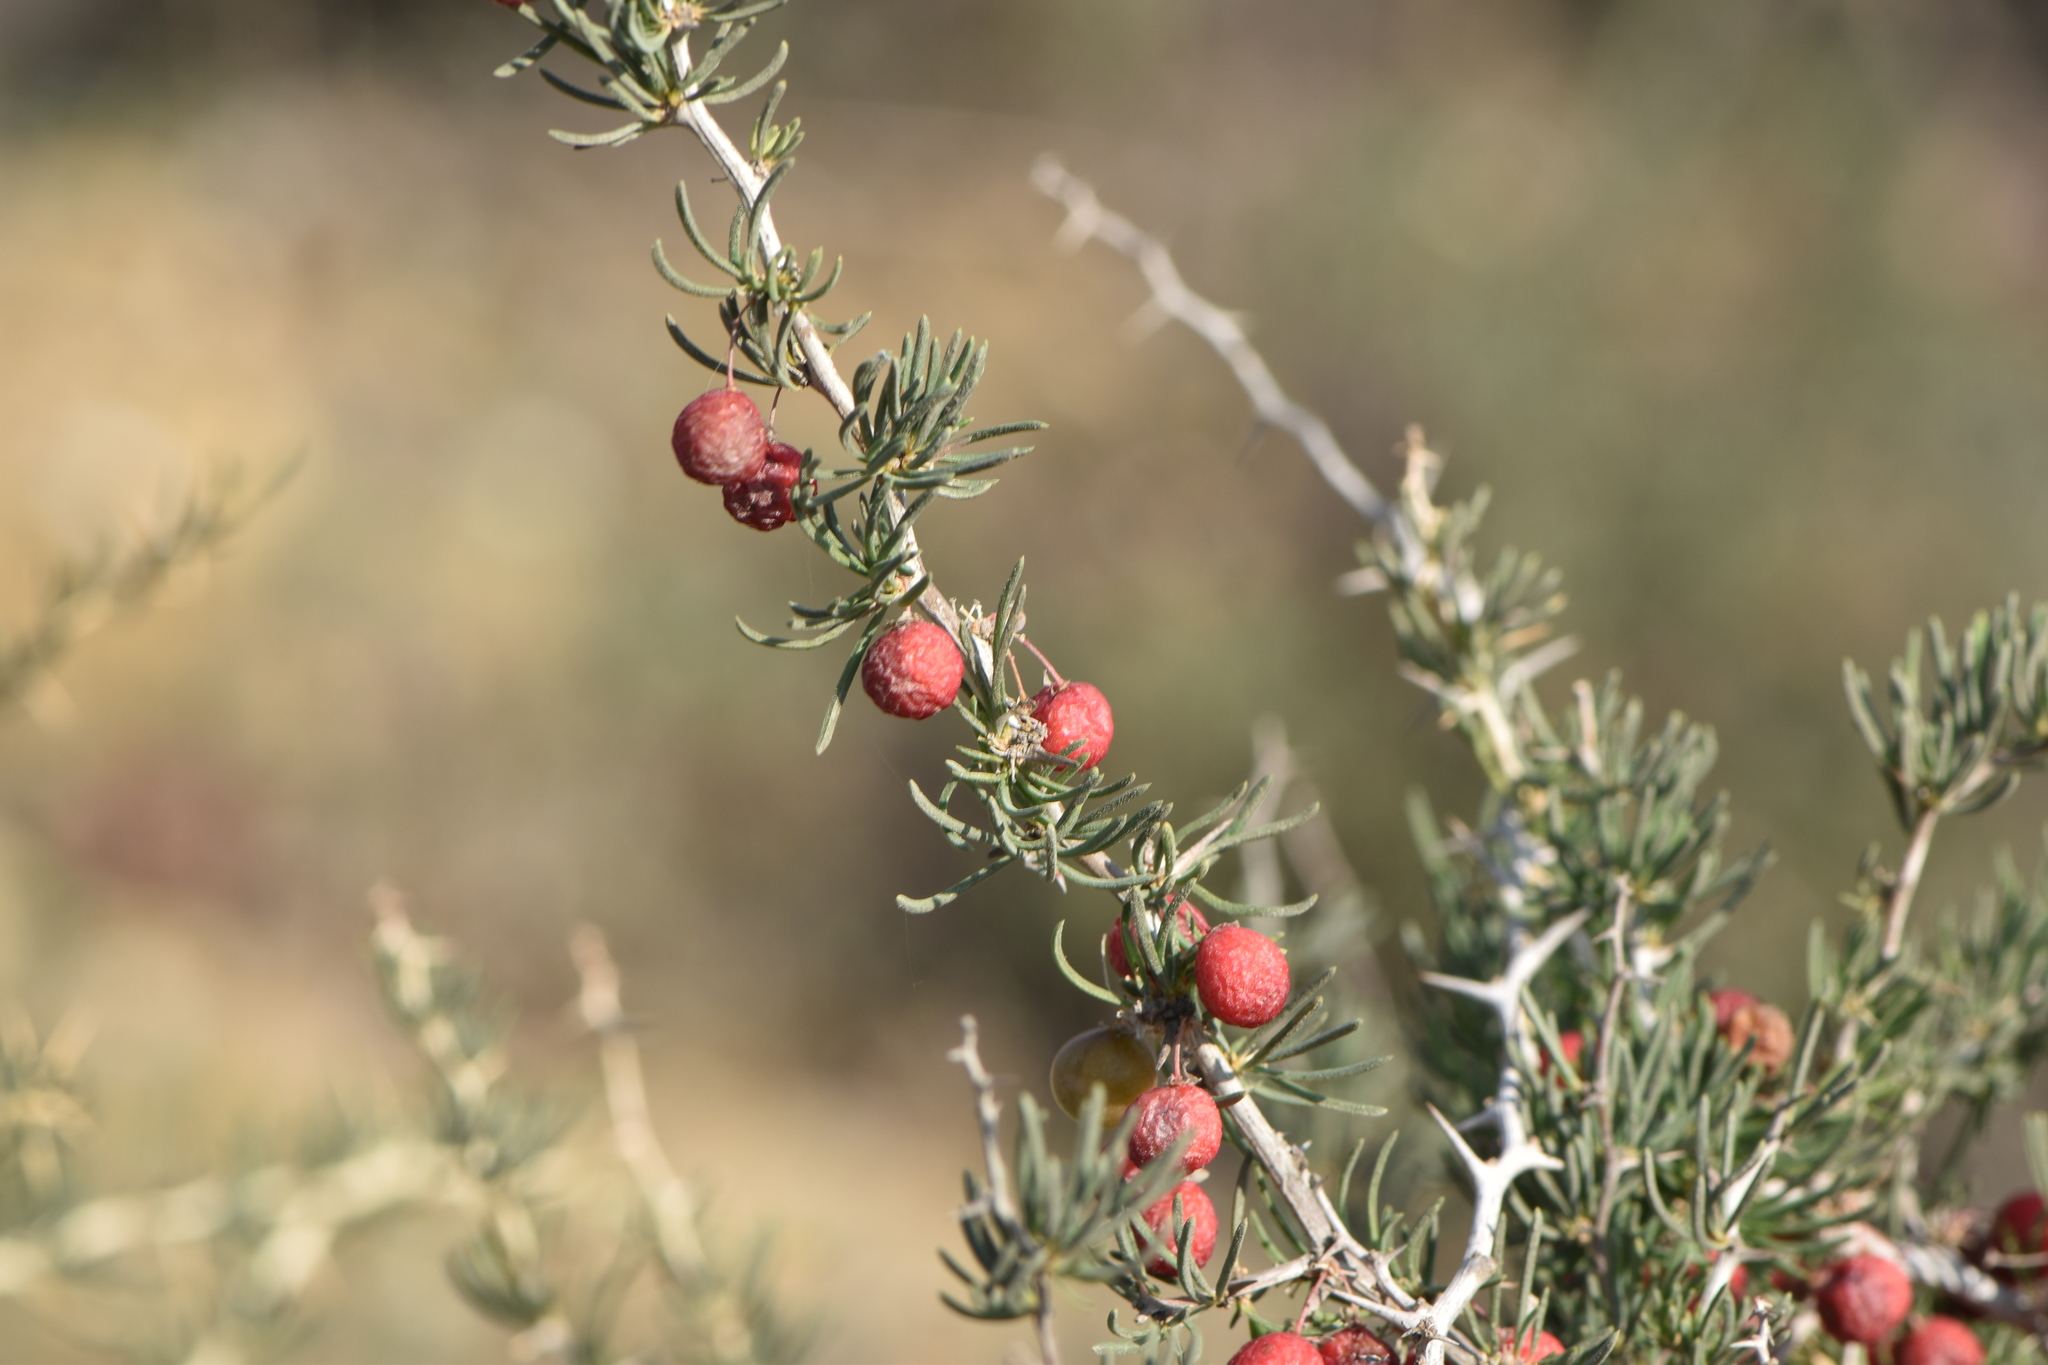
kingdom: Plantae
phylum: Tracheophyta
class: Liliopsida
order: Asparagales
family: Asparagaceae
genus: Asparagus
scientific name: Asparagus albus
